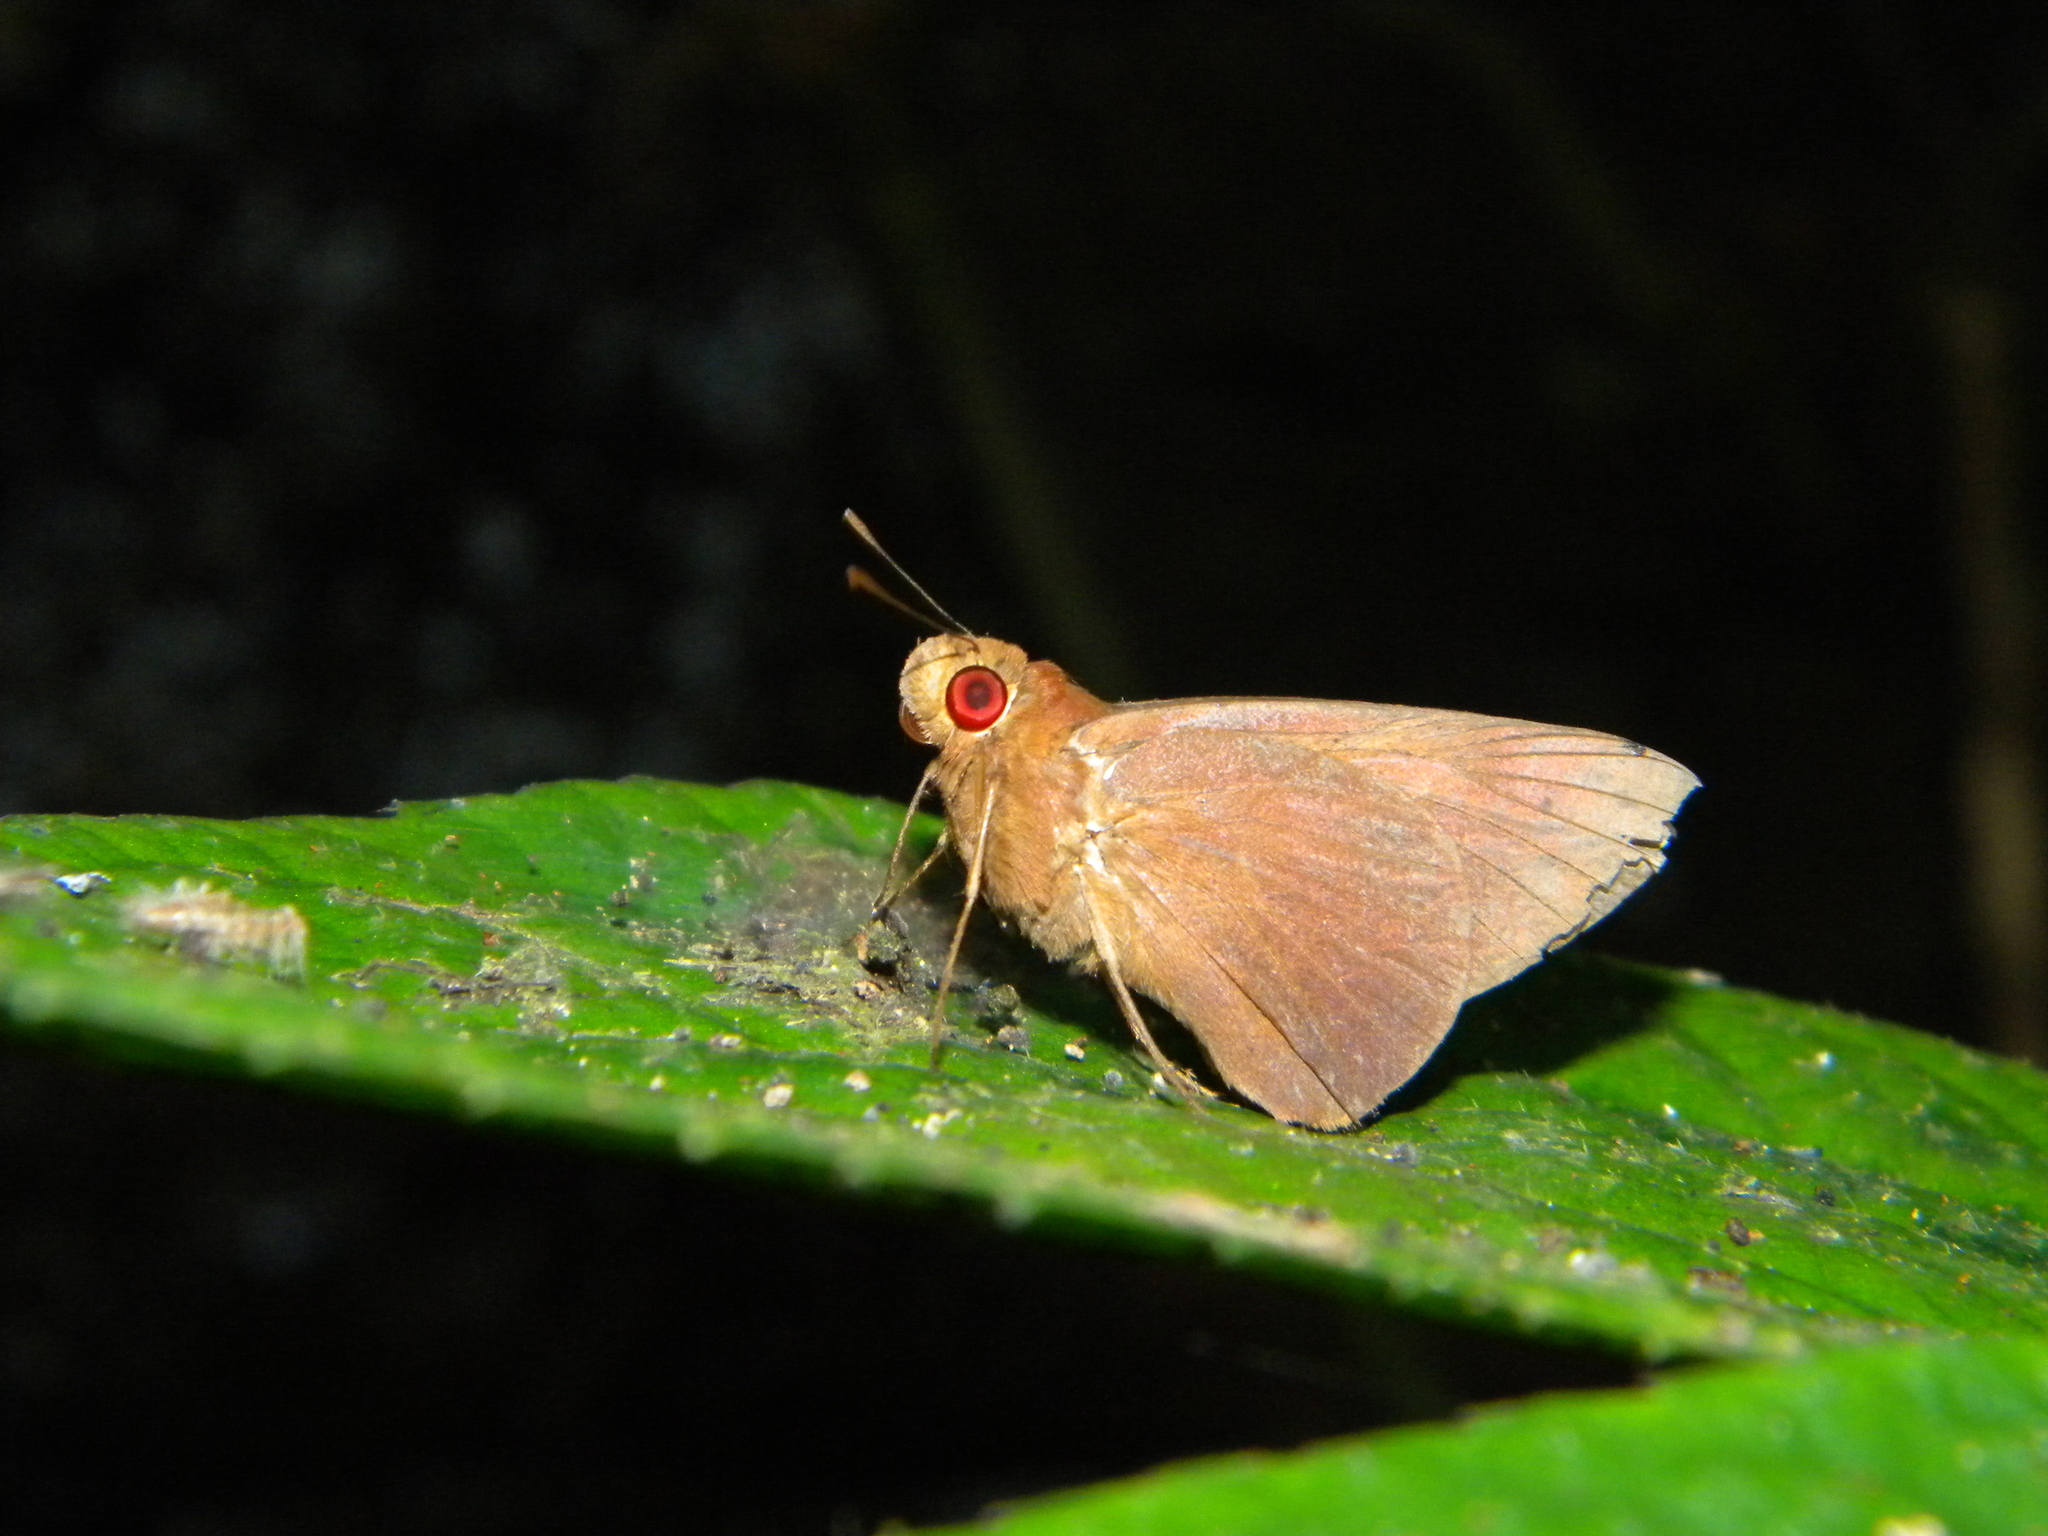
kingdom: Animalia
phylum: Arthropoda
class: Insecta
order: Lepidoptera
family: Hesperiidae
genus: Erionota
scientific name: Erionota torus
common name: Rounded palm-redeye
